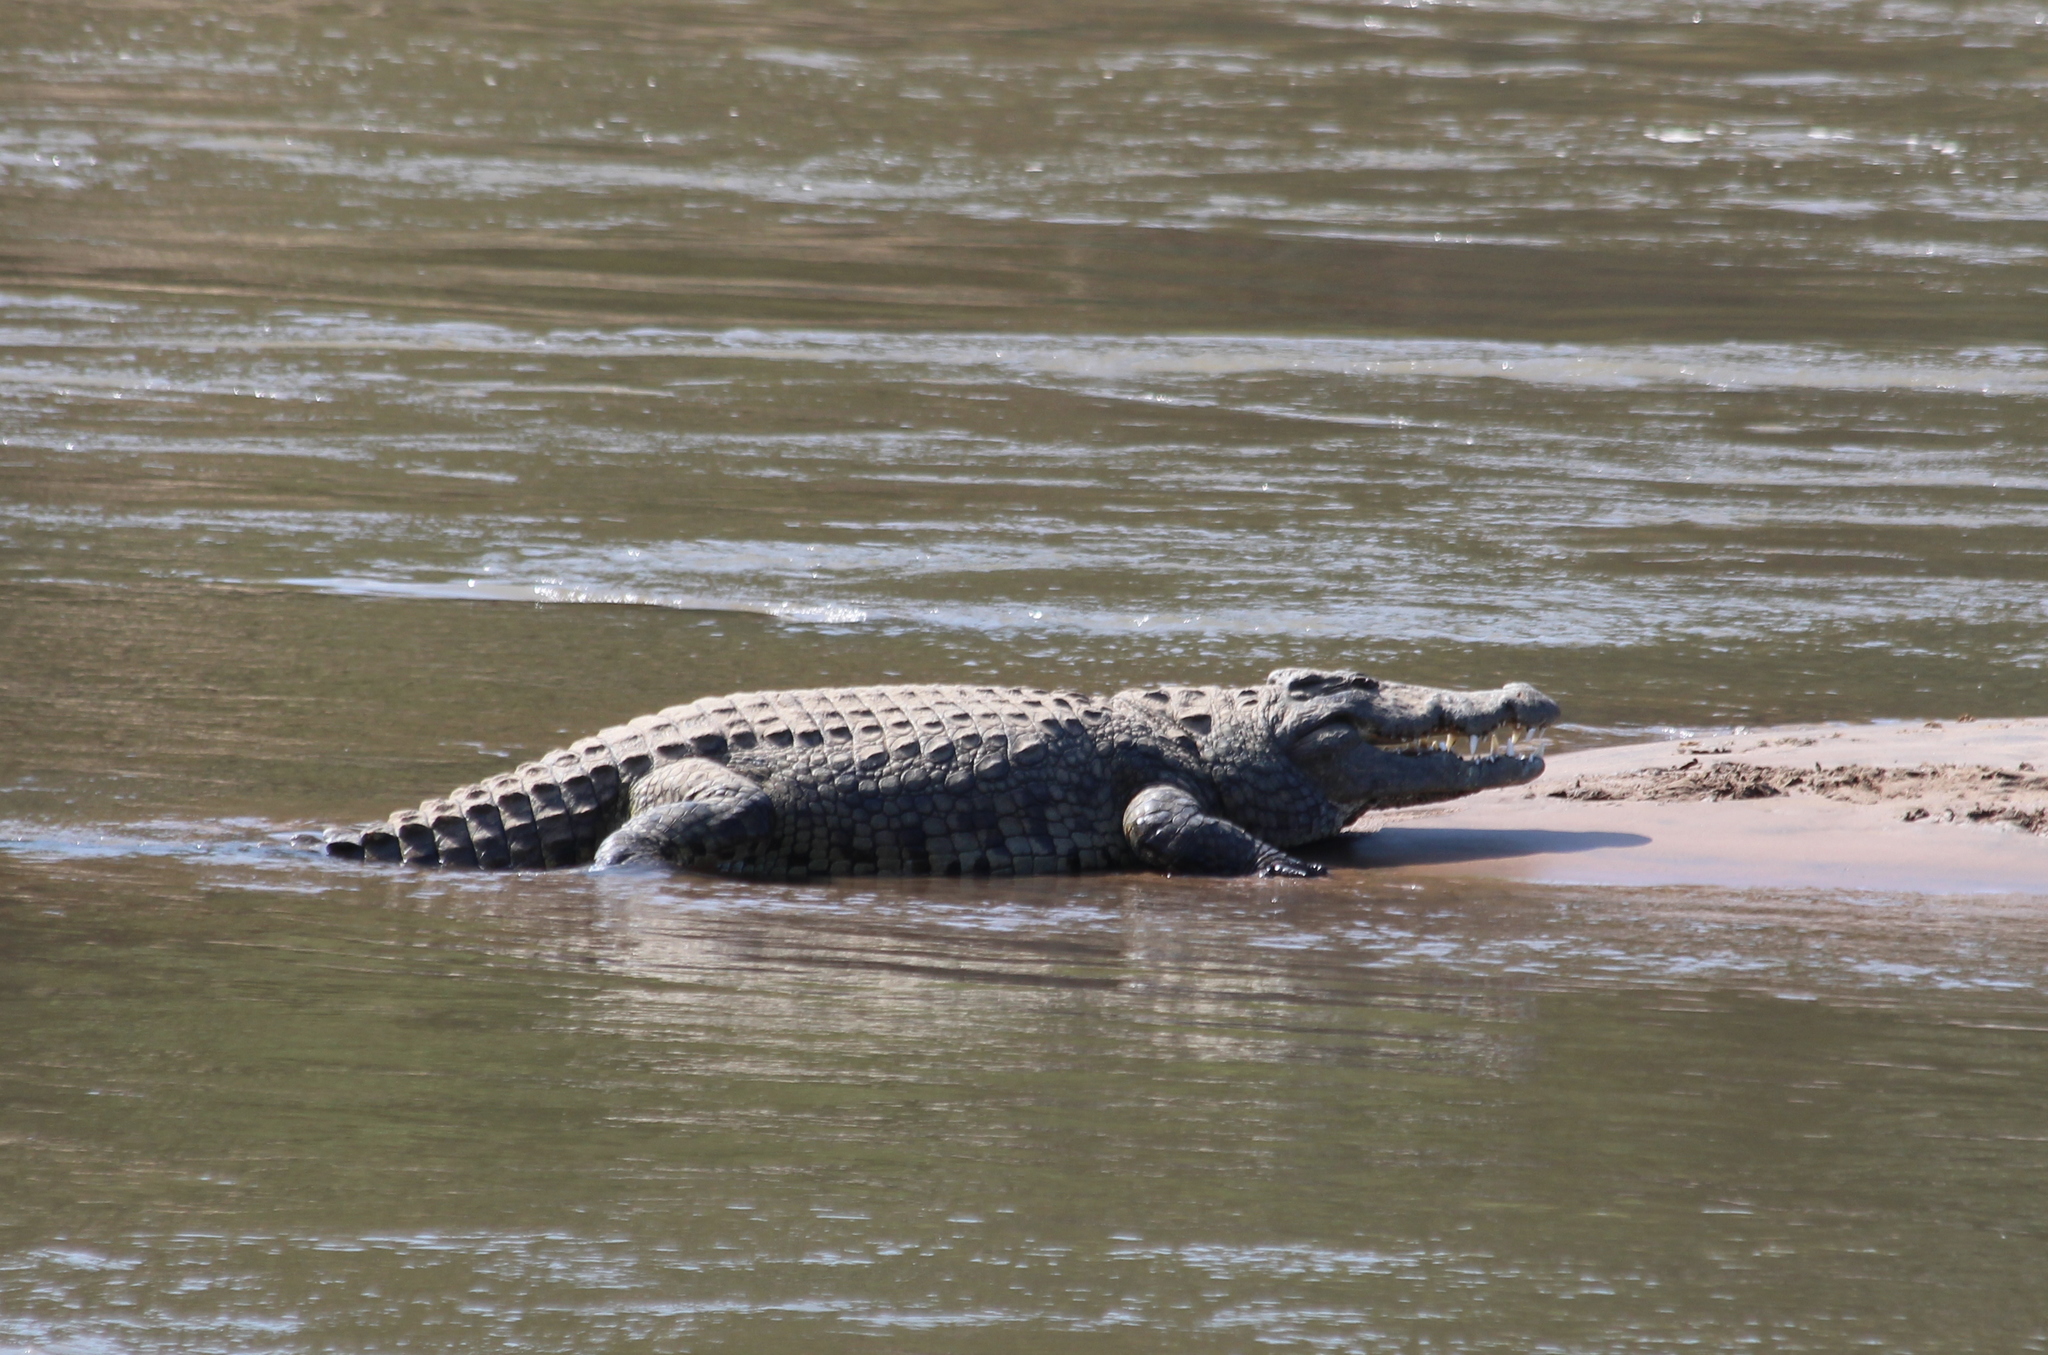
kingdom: Animalia
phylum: Chordata
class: Crocodylia
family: Crocodylidae
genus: Crocodylus
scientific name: Crocodylus niloticus
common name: Nile crocodile
